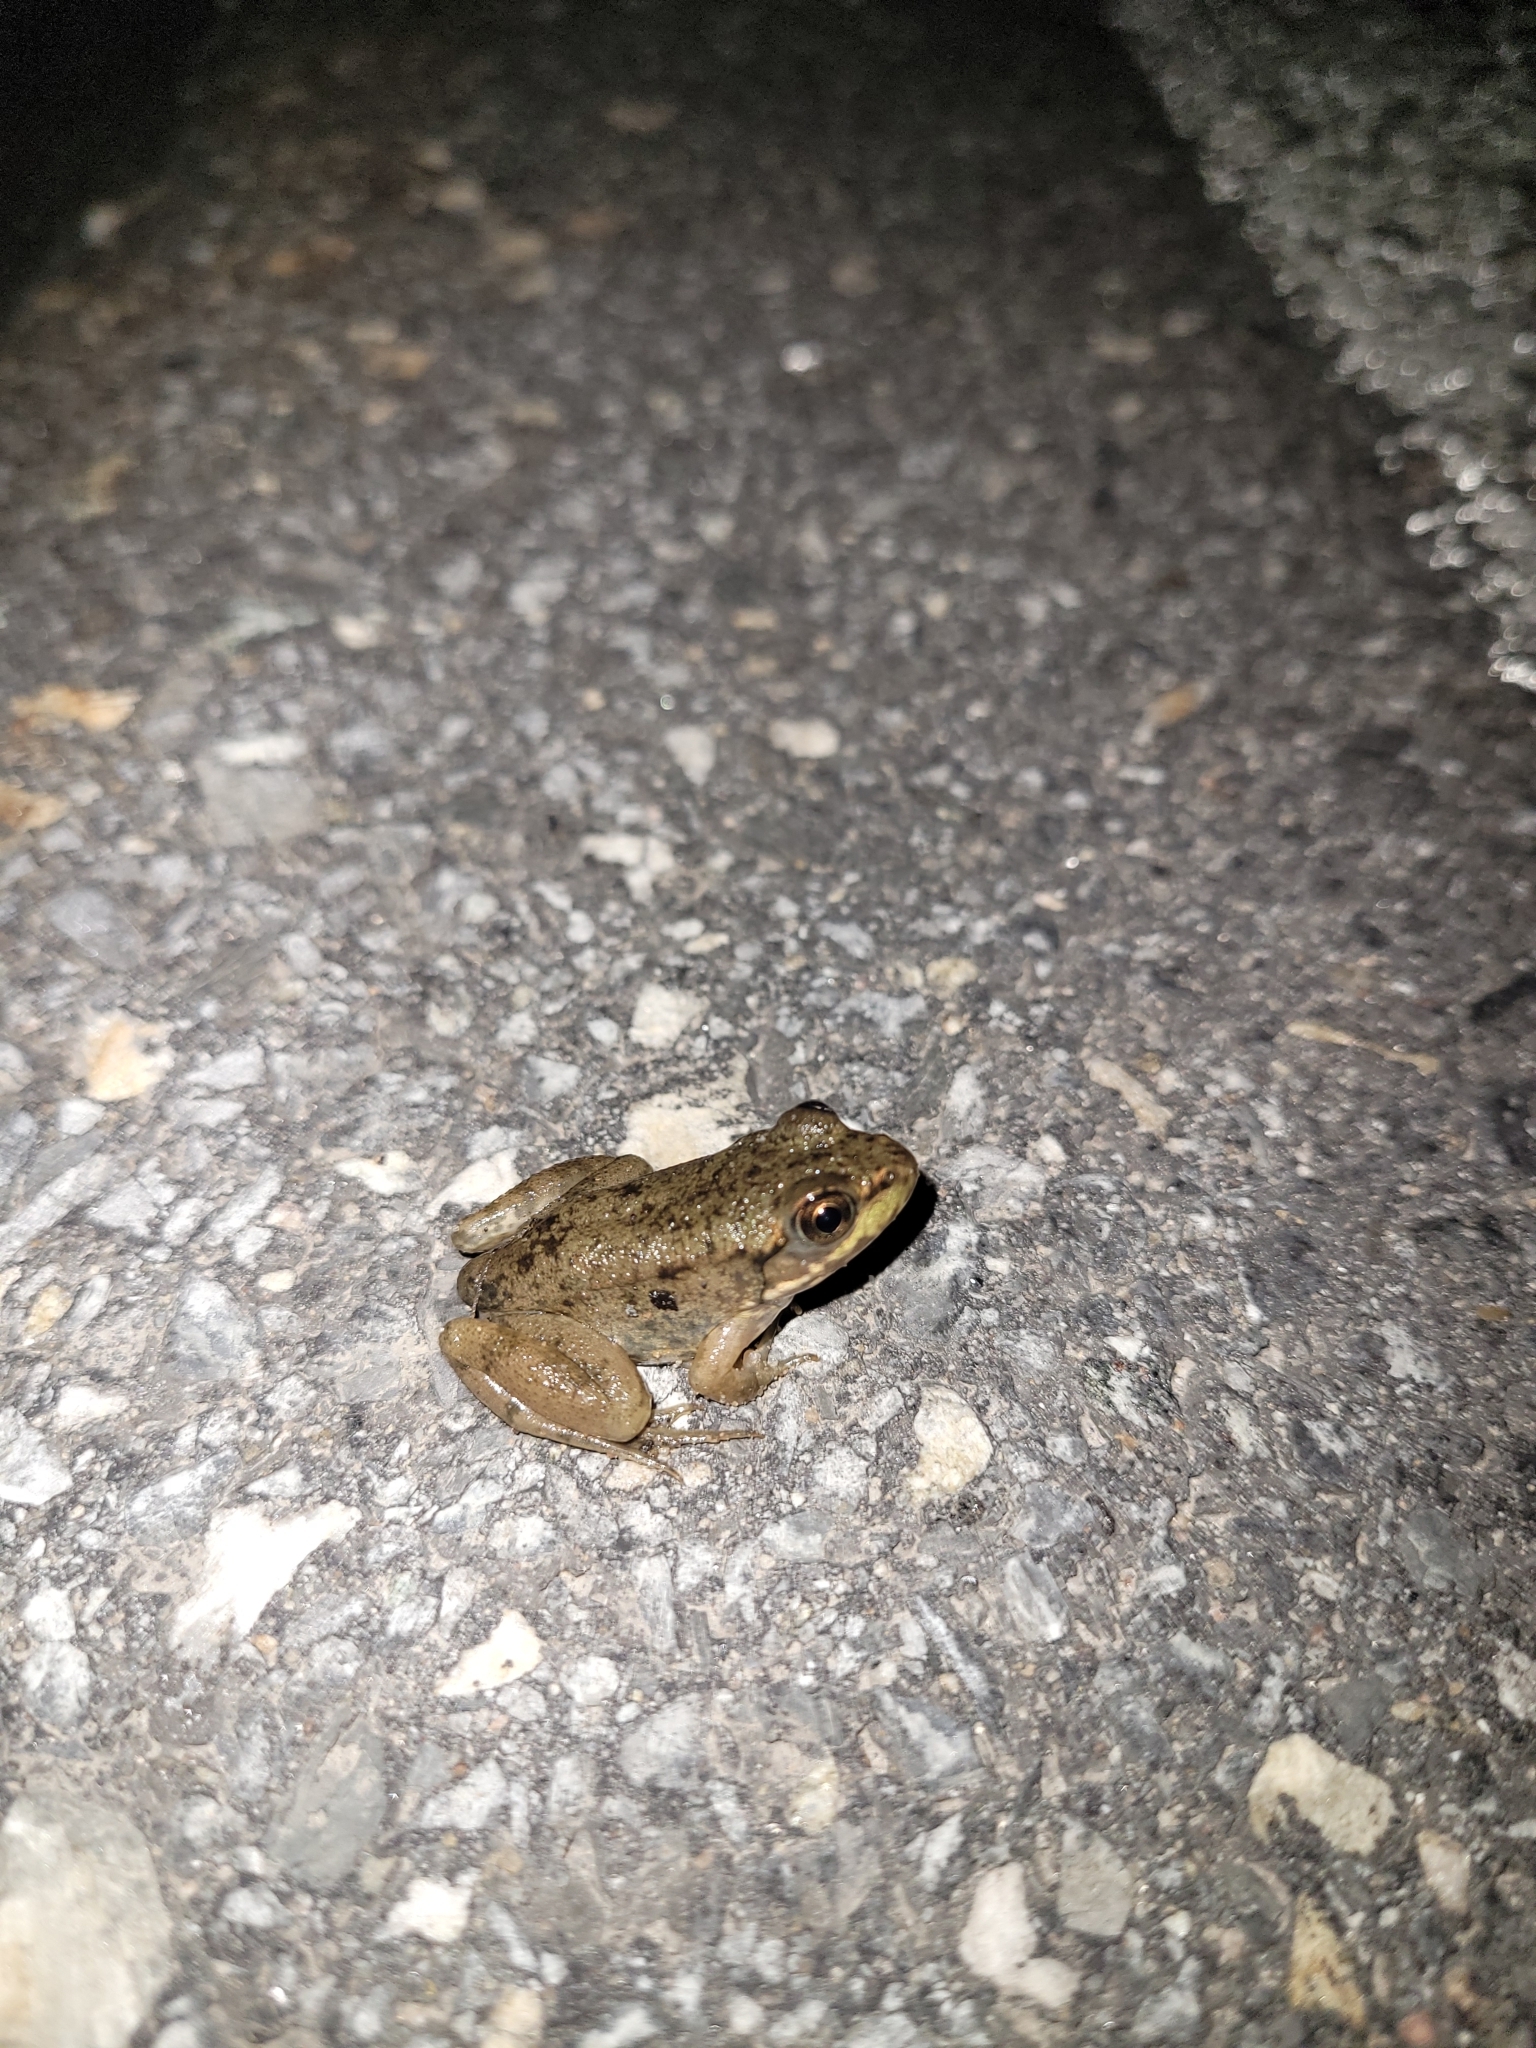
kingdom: Animalia
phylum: Chordata
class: Amphibia
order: Anura
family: Ranidae
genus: Lithobates
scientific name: Lithobates clamitans
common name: Green frog
